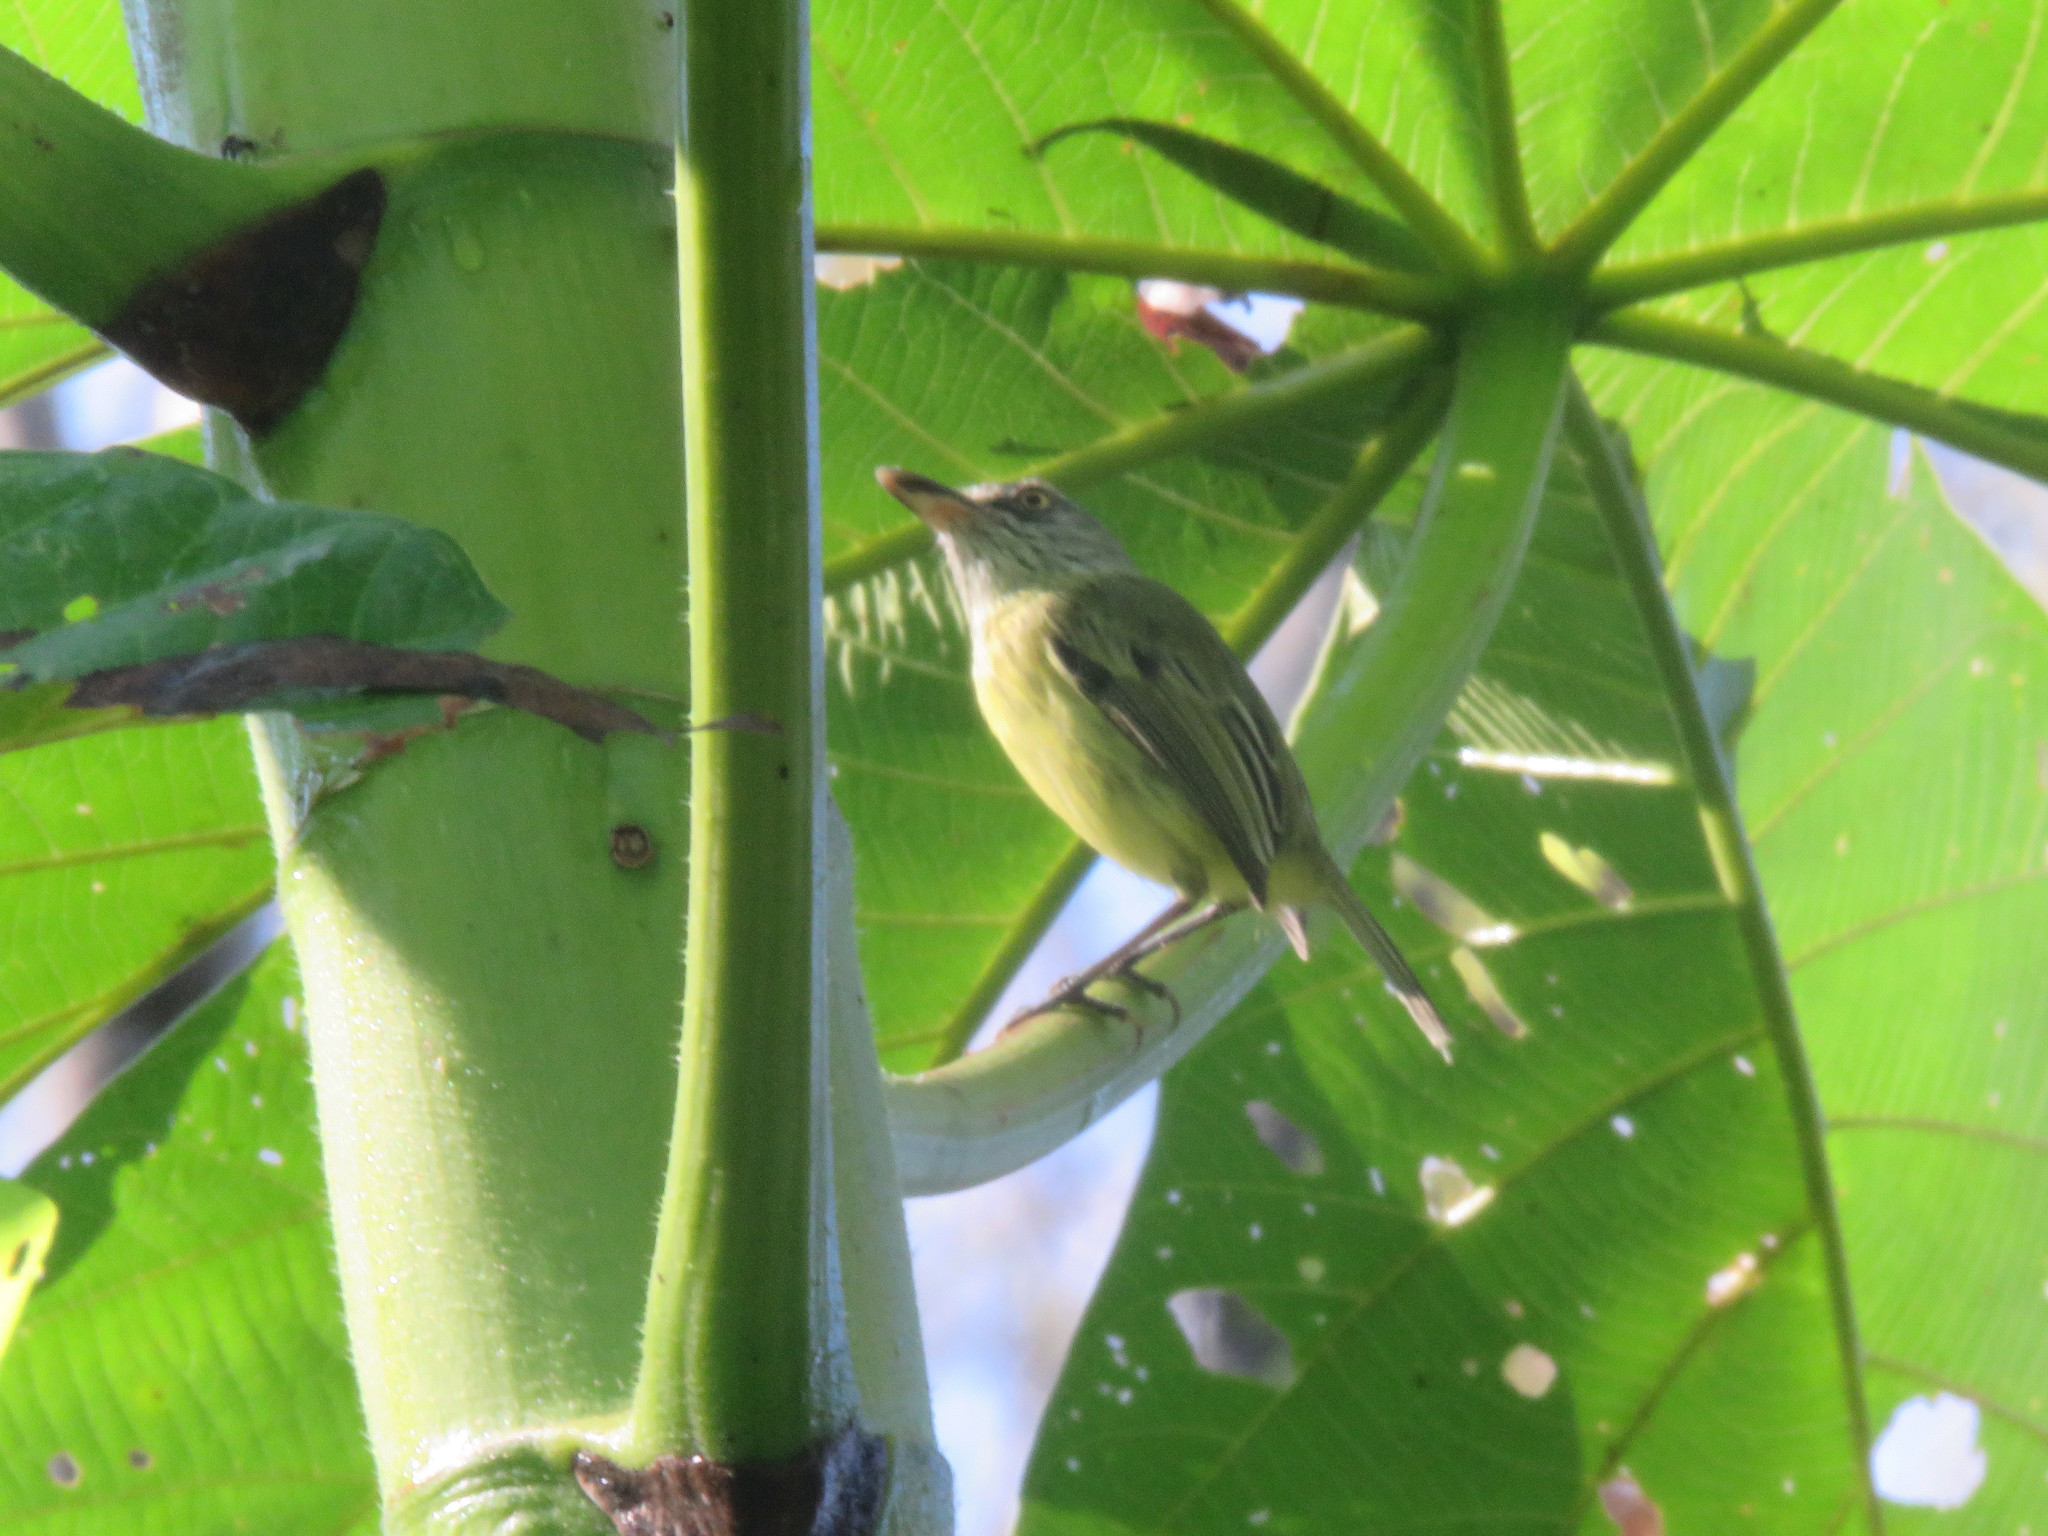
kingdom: Animalia
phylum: Chordata
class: Aves
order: Passeriformes
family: Tyrannidae
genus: Todirostrum
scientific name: Todirostrum maculatum
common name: Spotted tody-flycatcher
